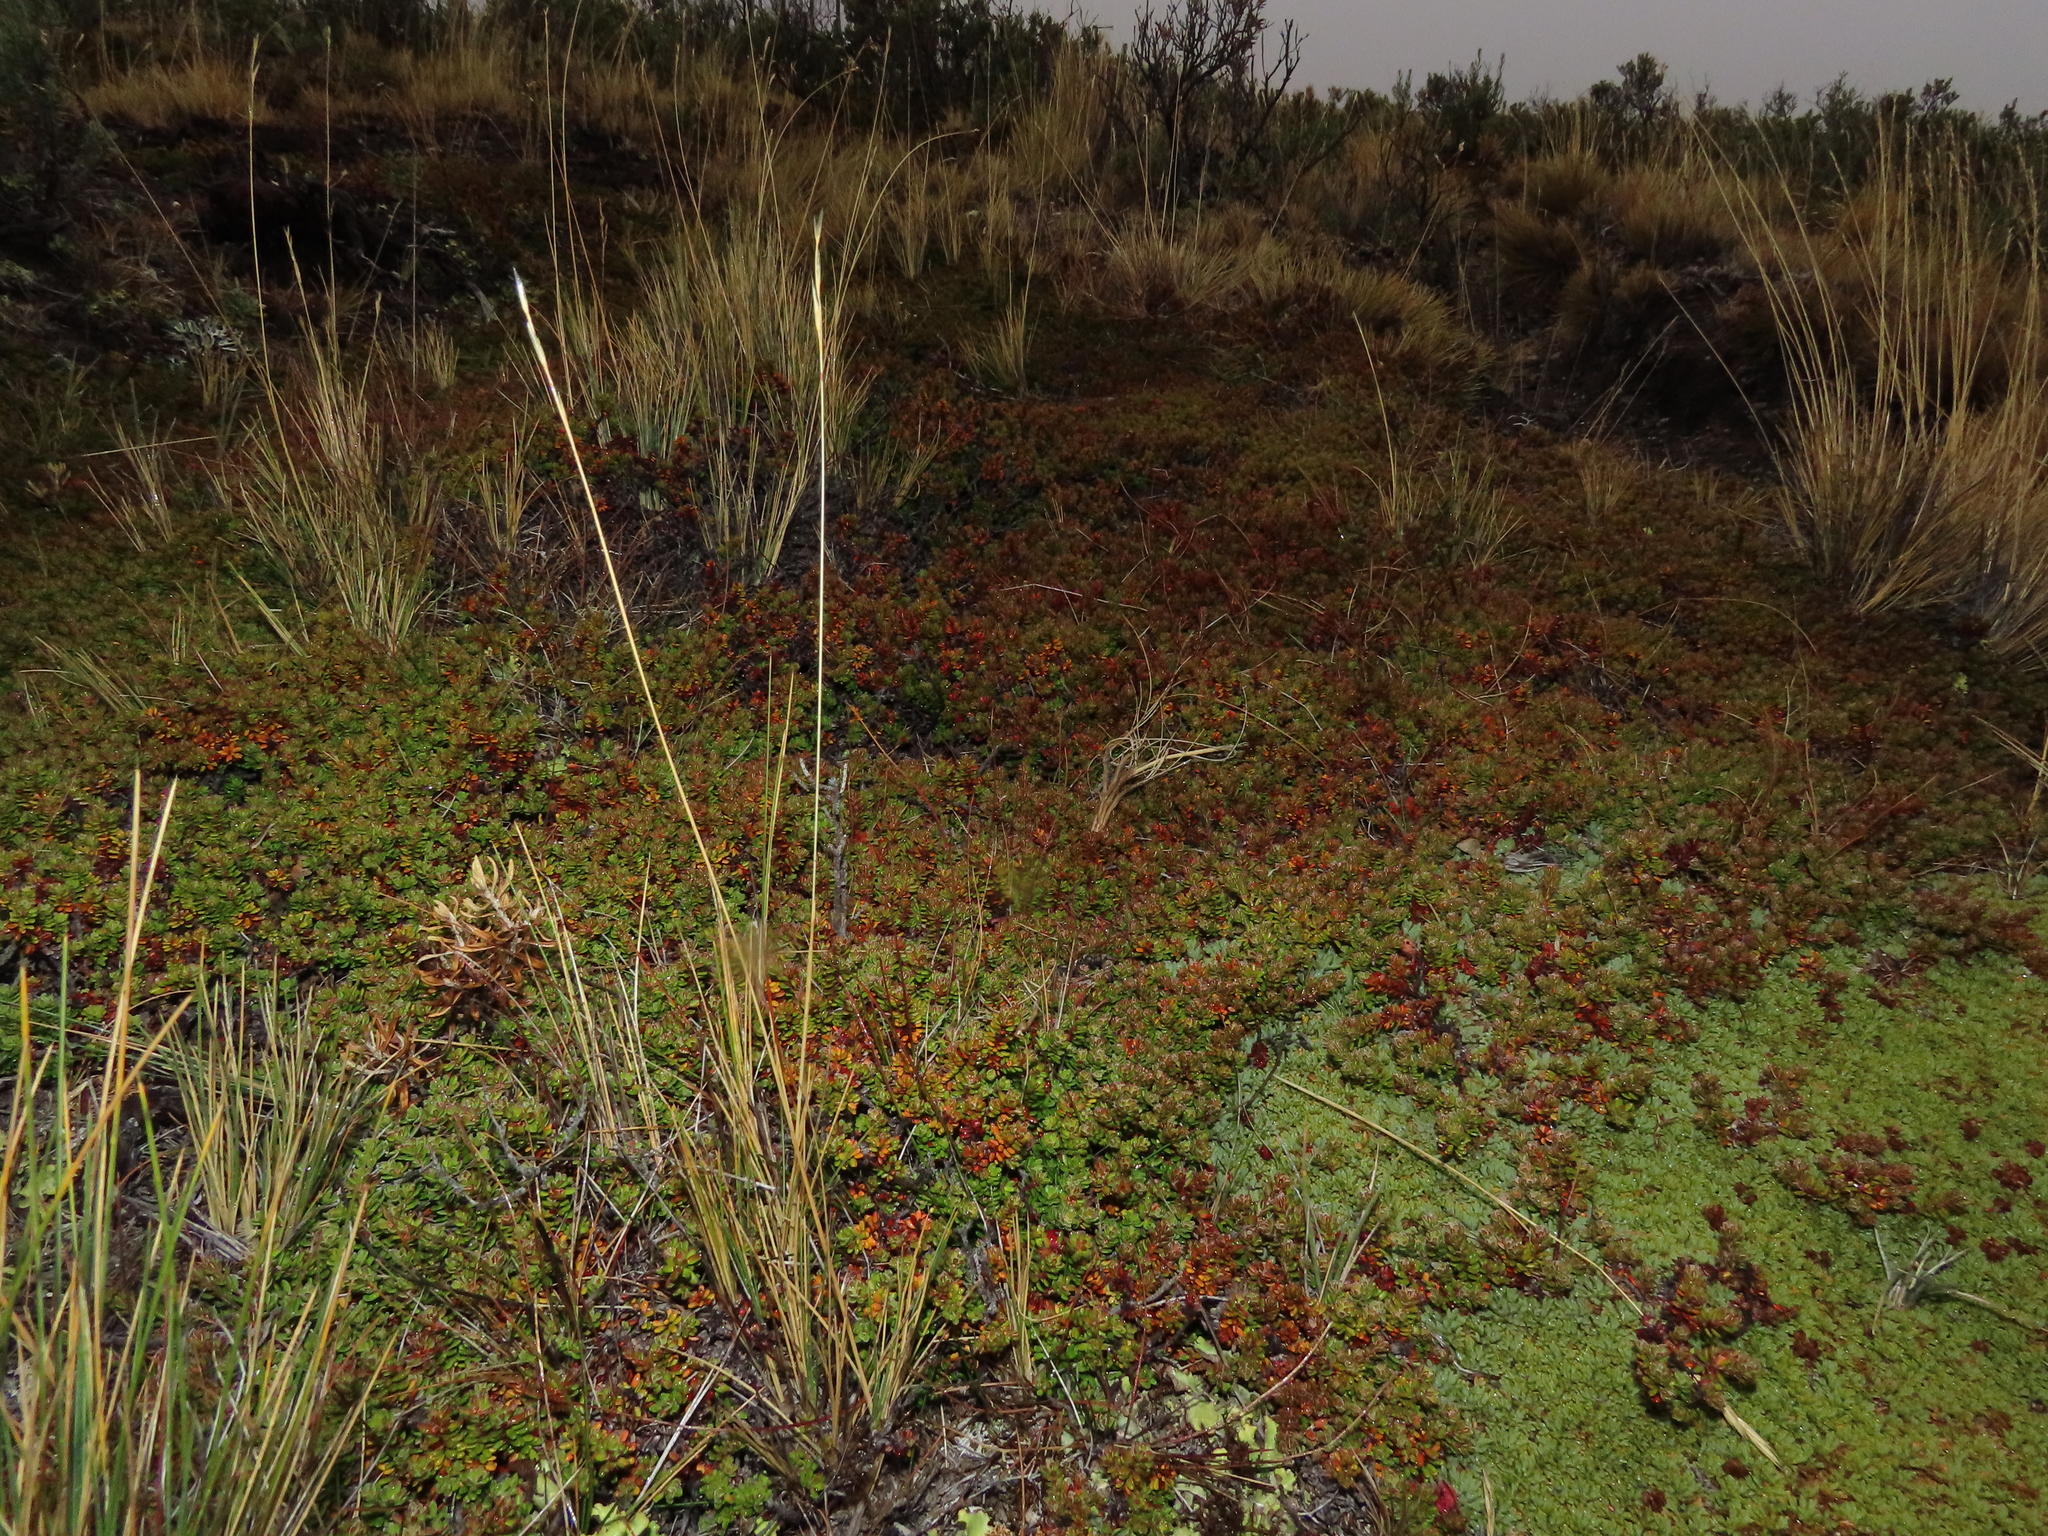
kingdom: Plantae
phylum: Tracheophyta
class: Magnoliopsida
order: Ericales
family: Ericaceae
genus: Empetrum
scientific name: Empetrum rubrum
